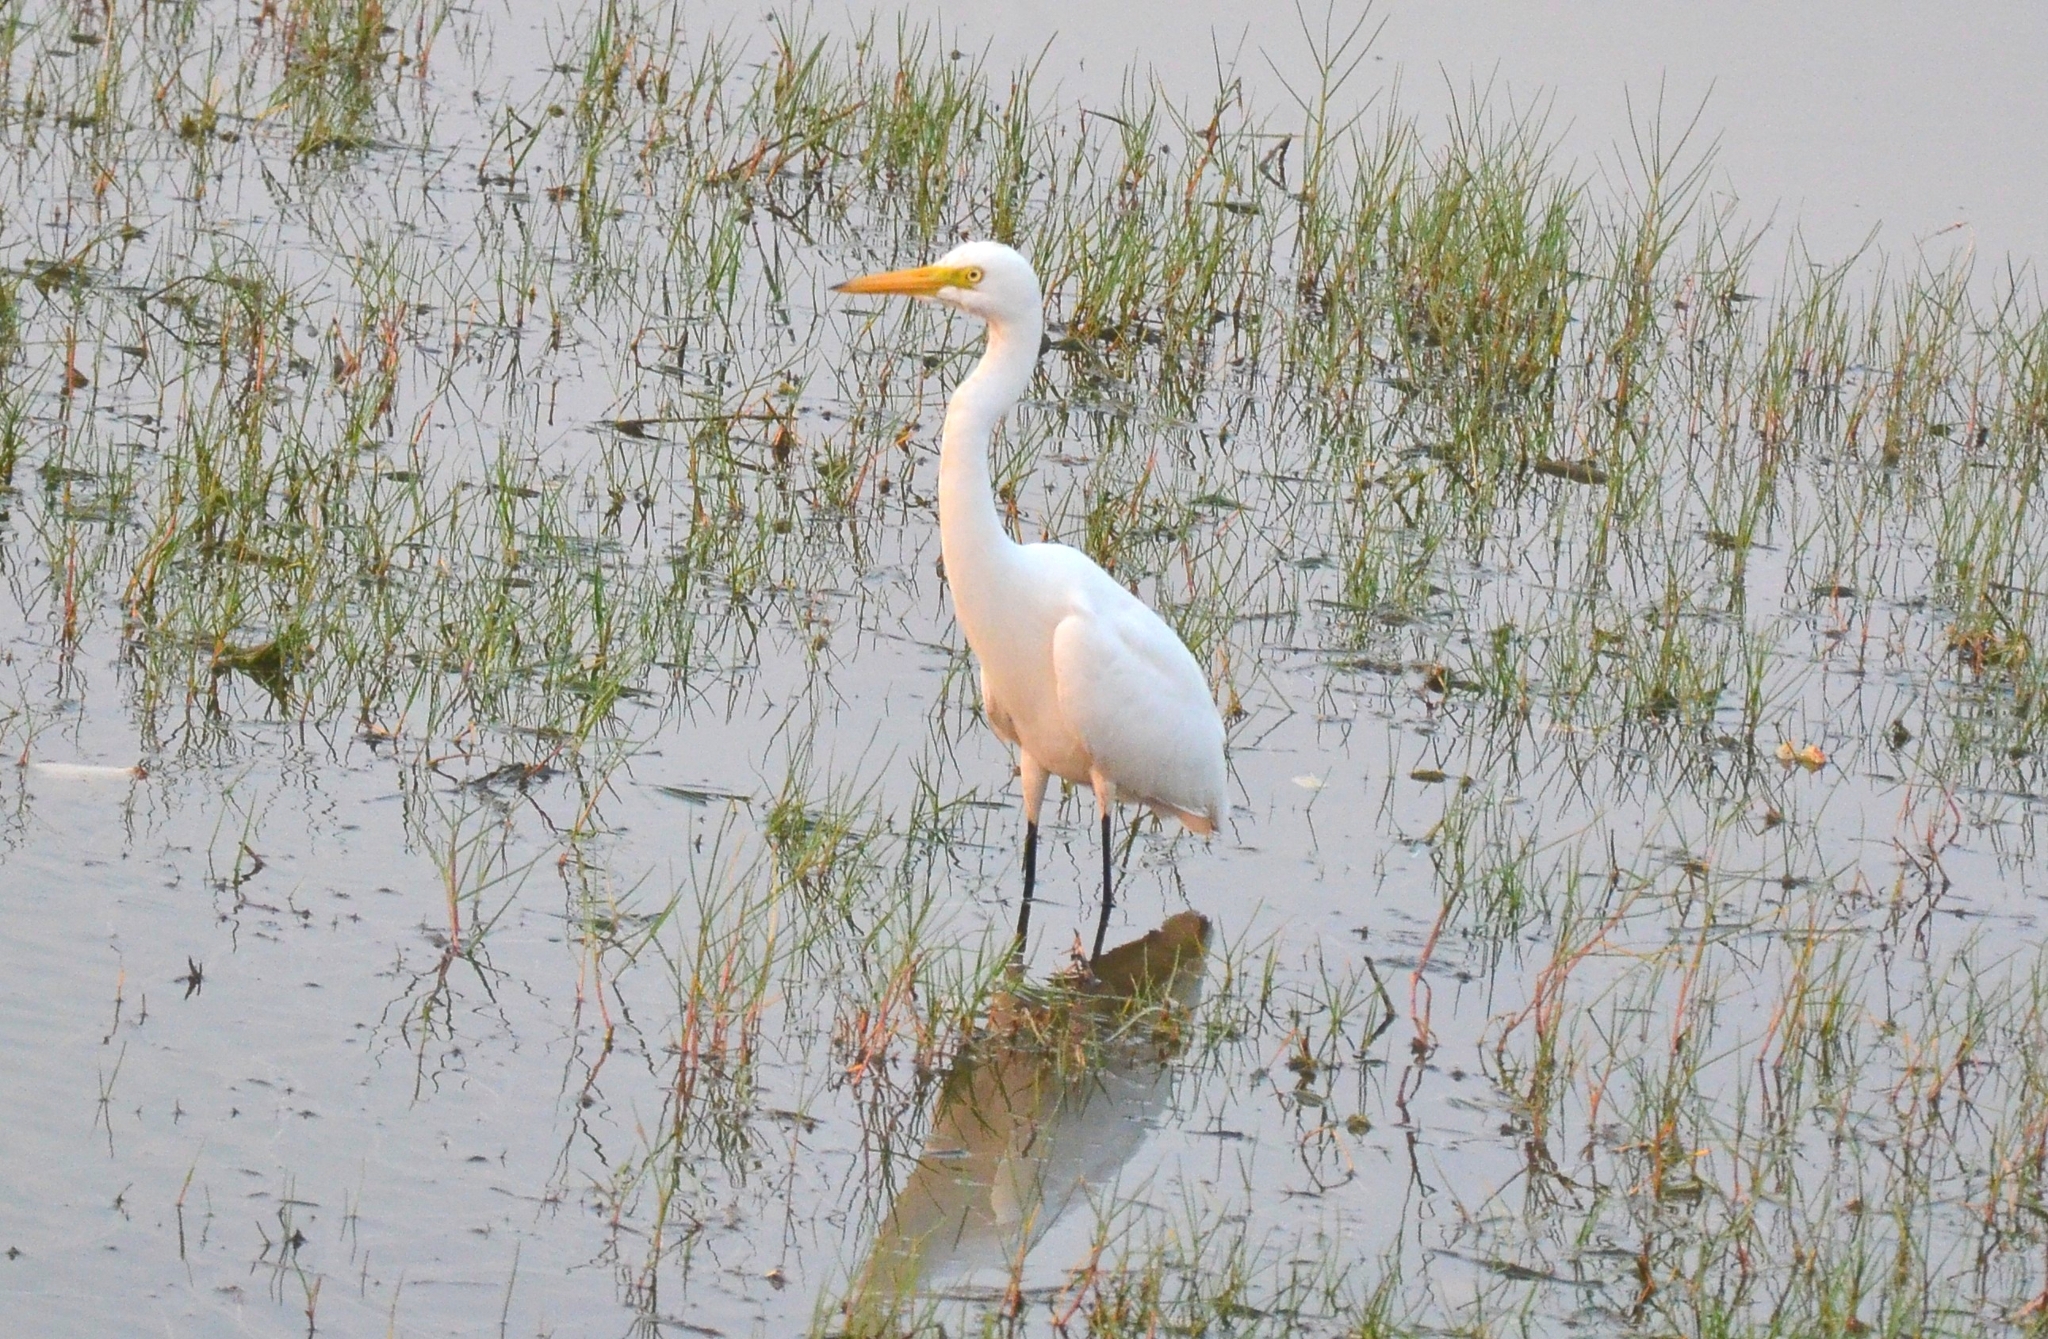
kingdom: Animalia
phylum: Chordata
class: Aves
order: Pelecaniformes
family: Ardeidae
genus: Egretta
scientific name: Egretta intermedia
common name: Intermediate egret
